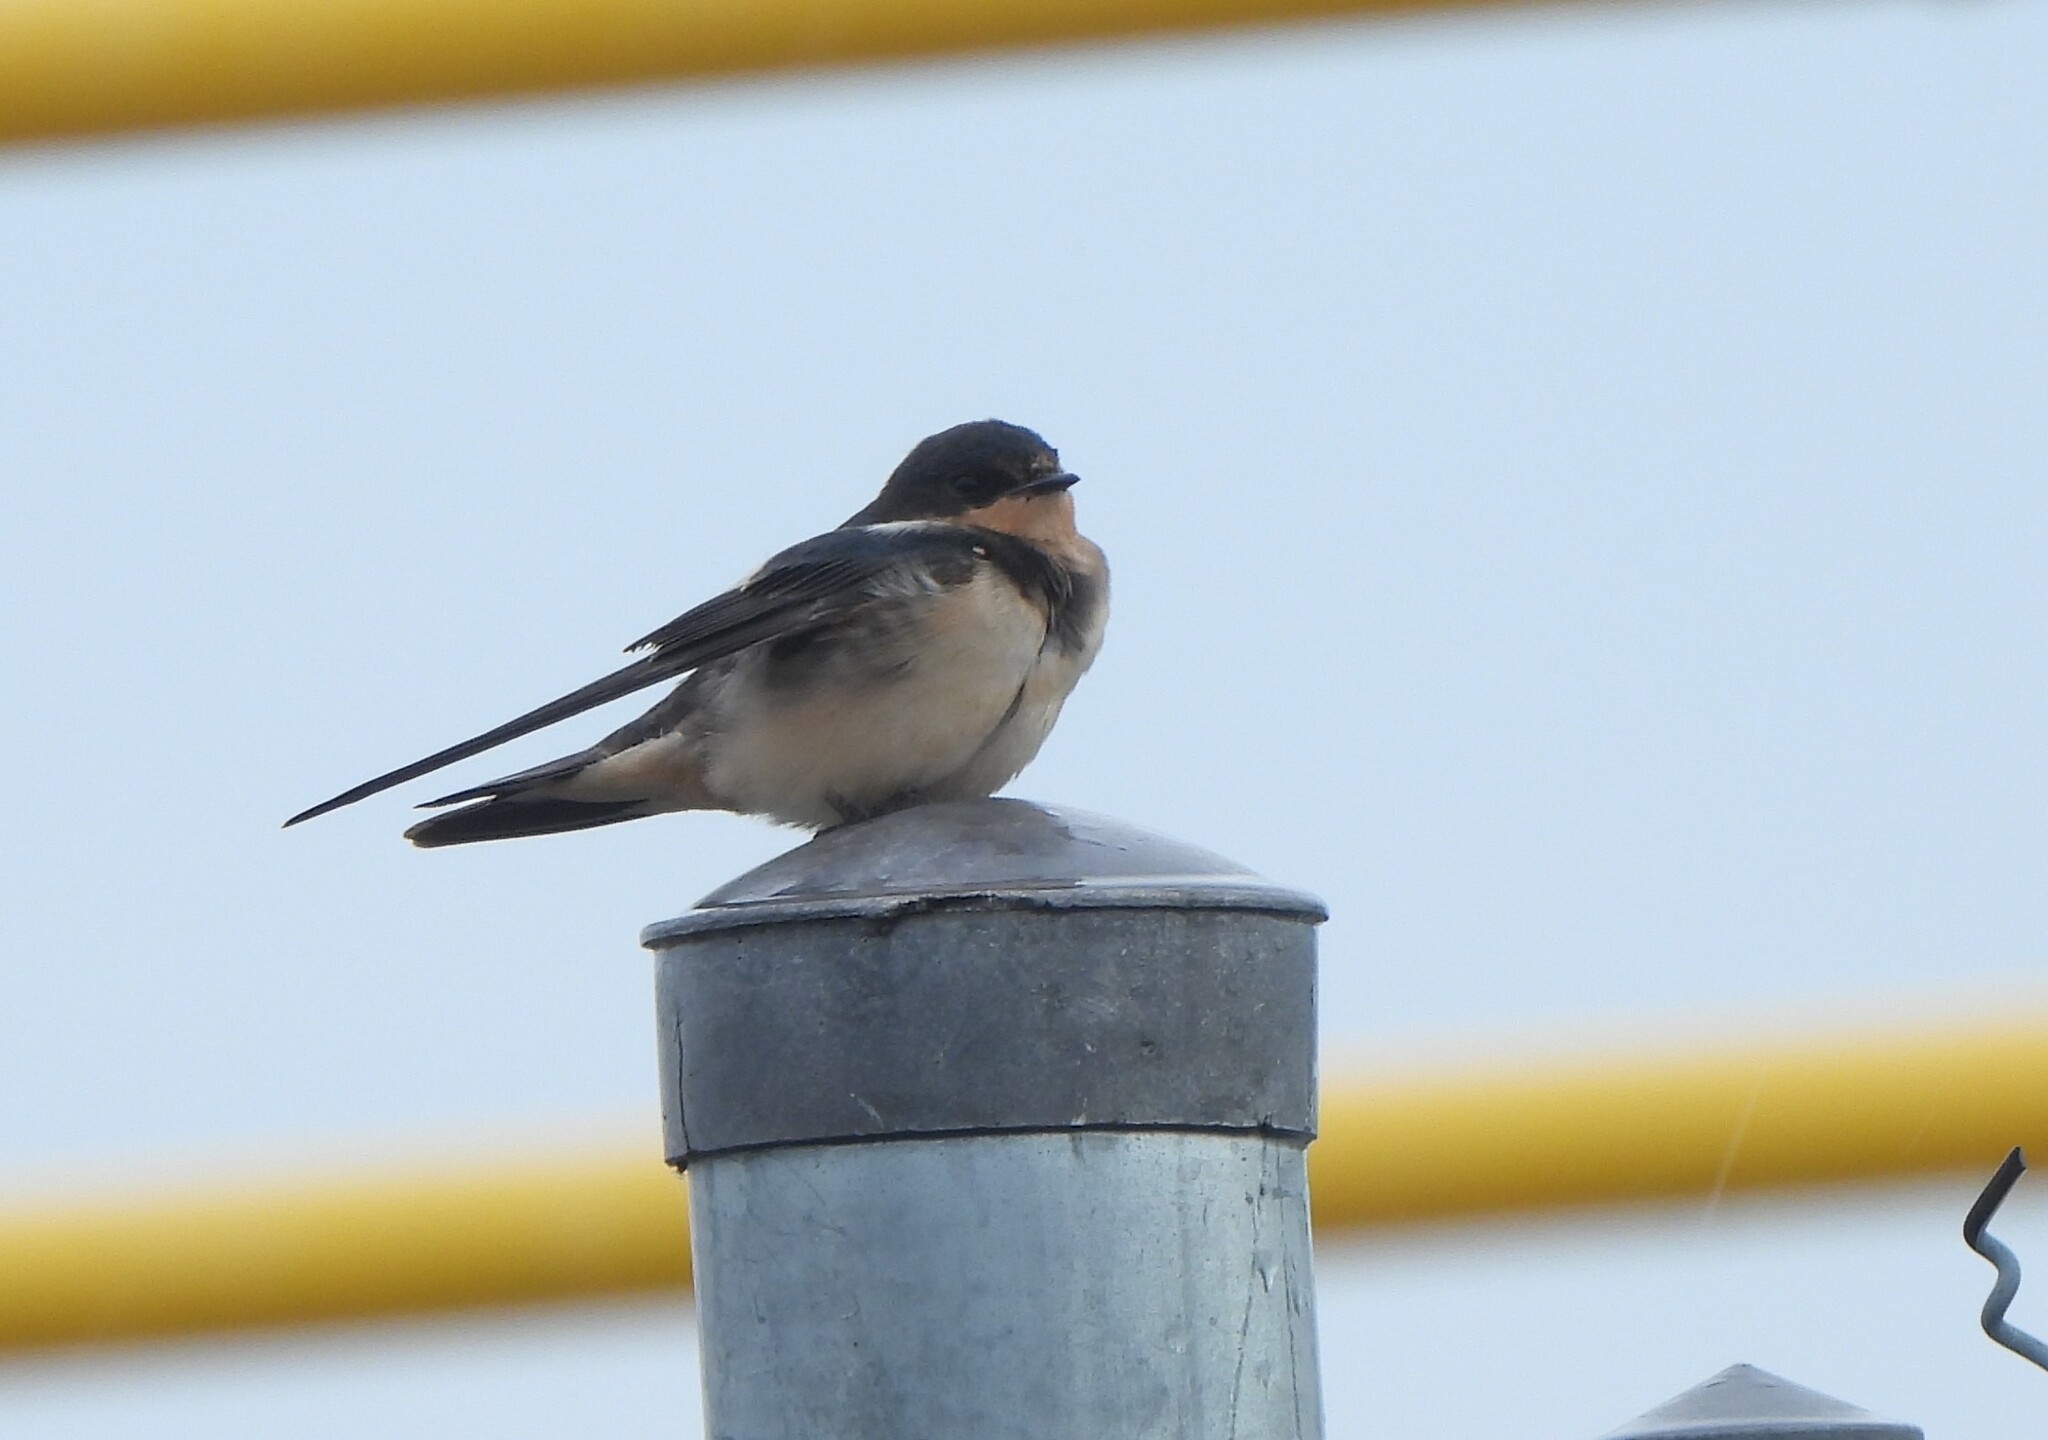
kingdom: Animalia
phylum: Chordata
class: Aves
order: Passeriformes
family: Hirundinidae
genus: Hirundo
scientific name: Hirundo rustica
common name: Barn swallow
